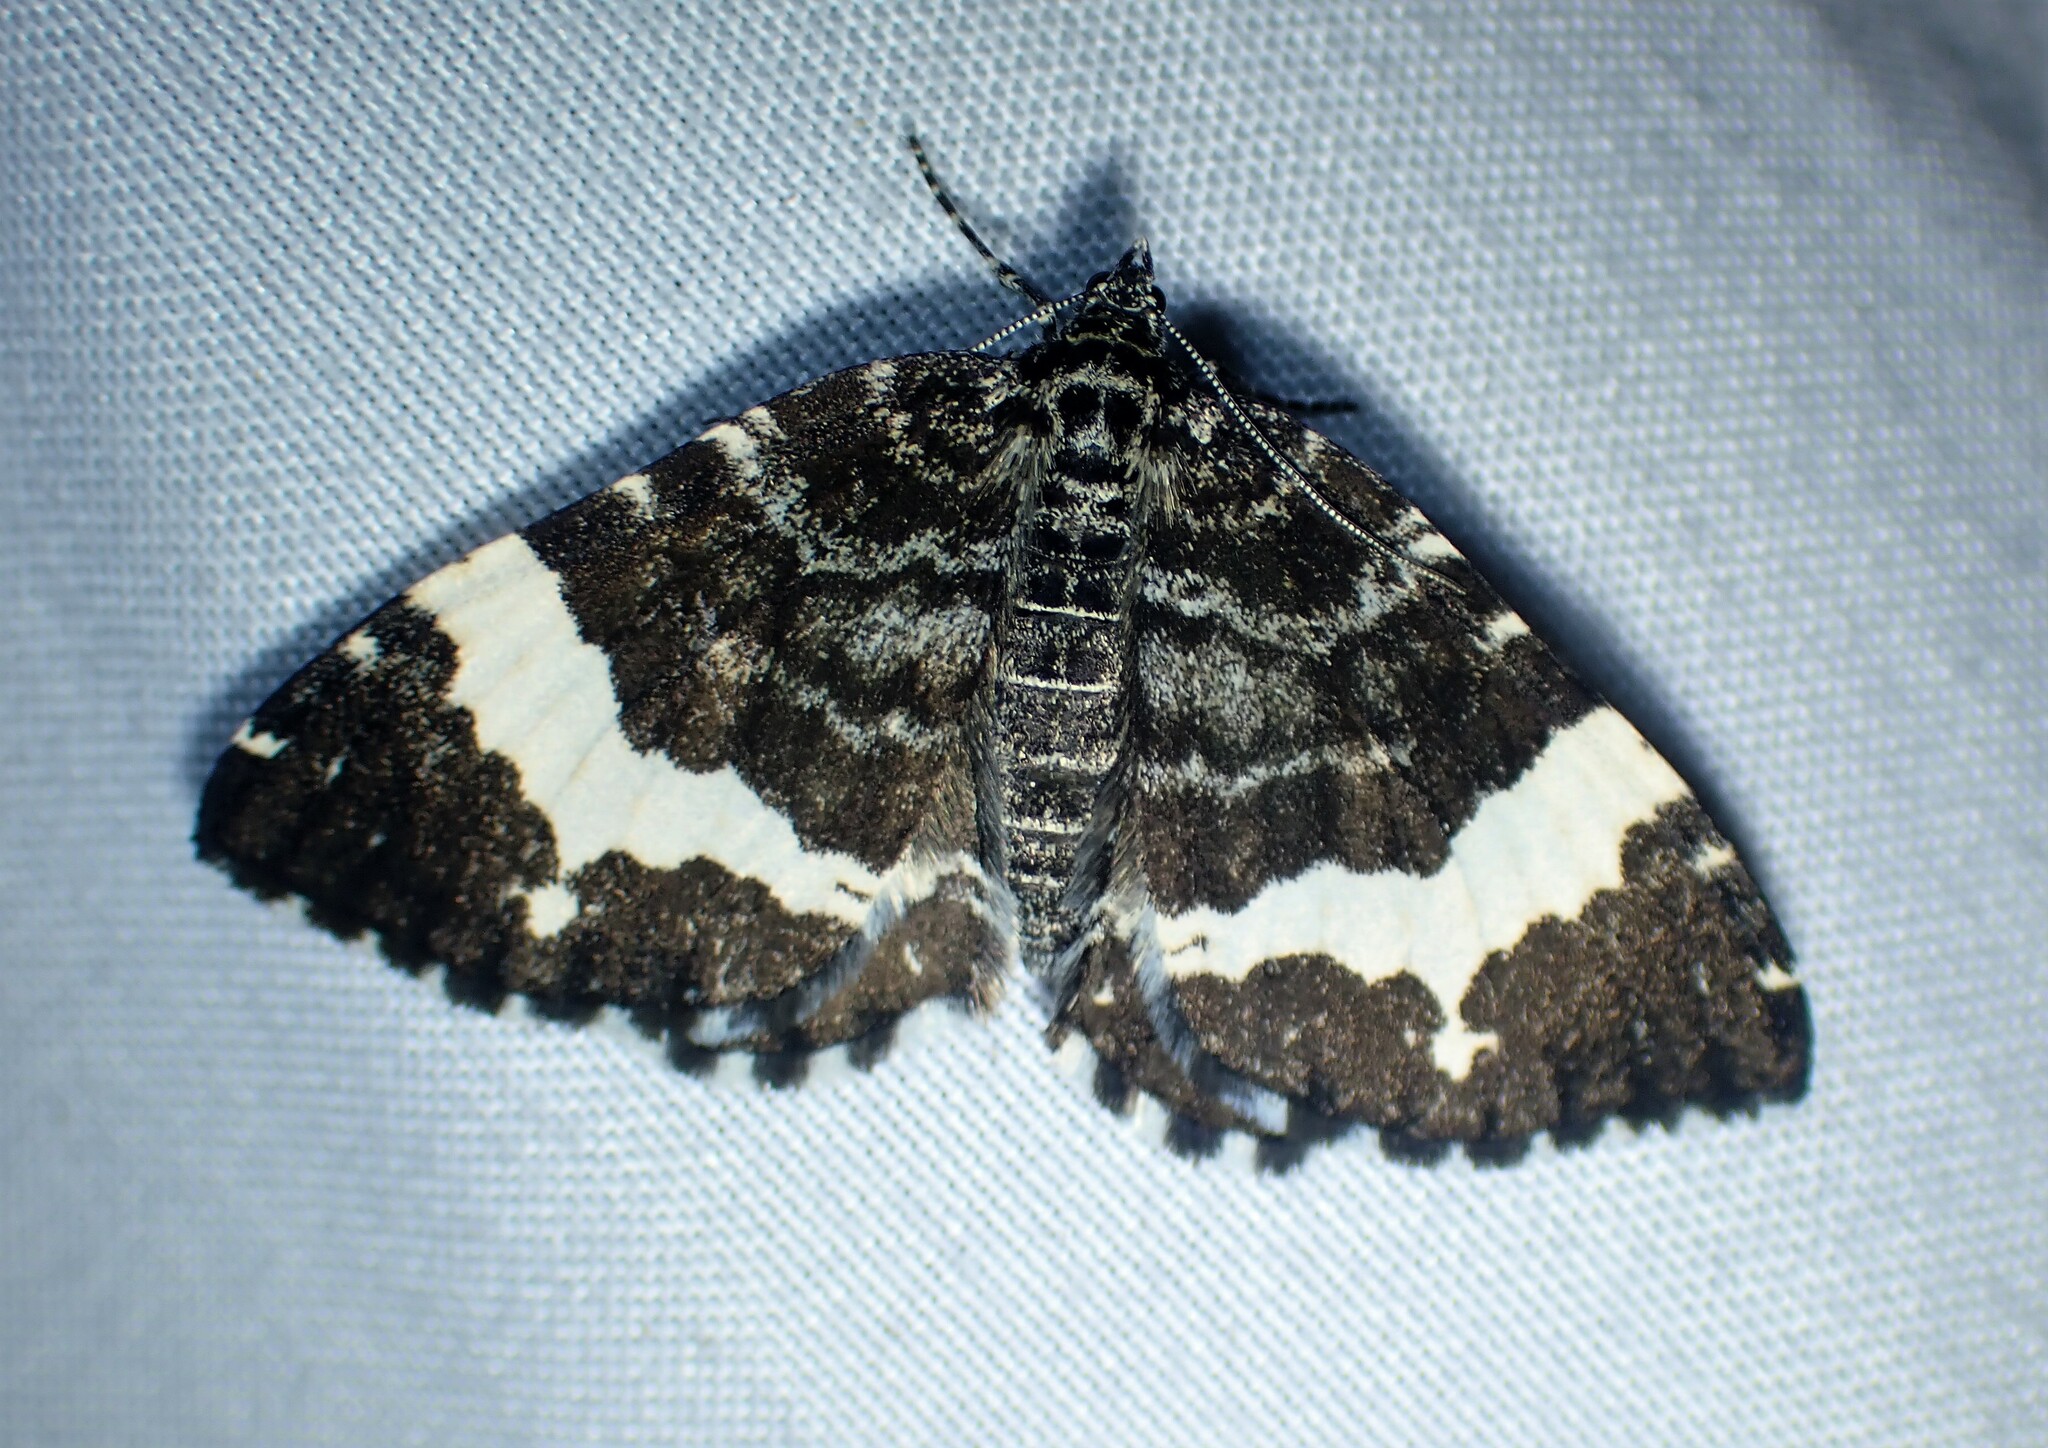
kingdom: Animalia
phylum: Arthropoda
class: Insecta
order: Lepidoptera
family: Geometridae
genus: Rheumaptera
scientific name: Rheumaptera
